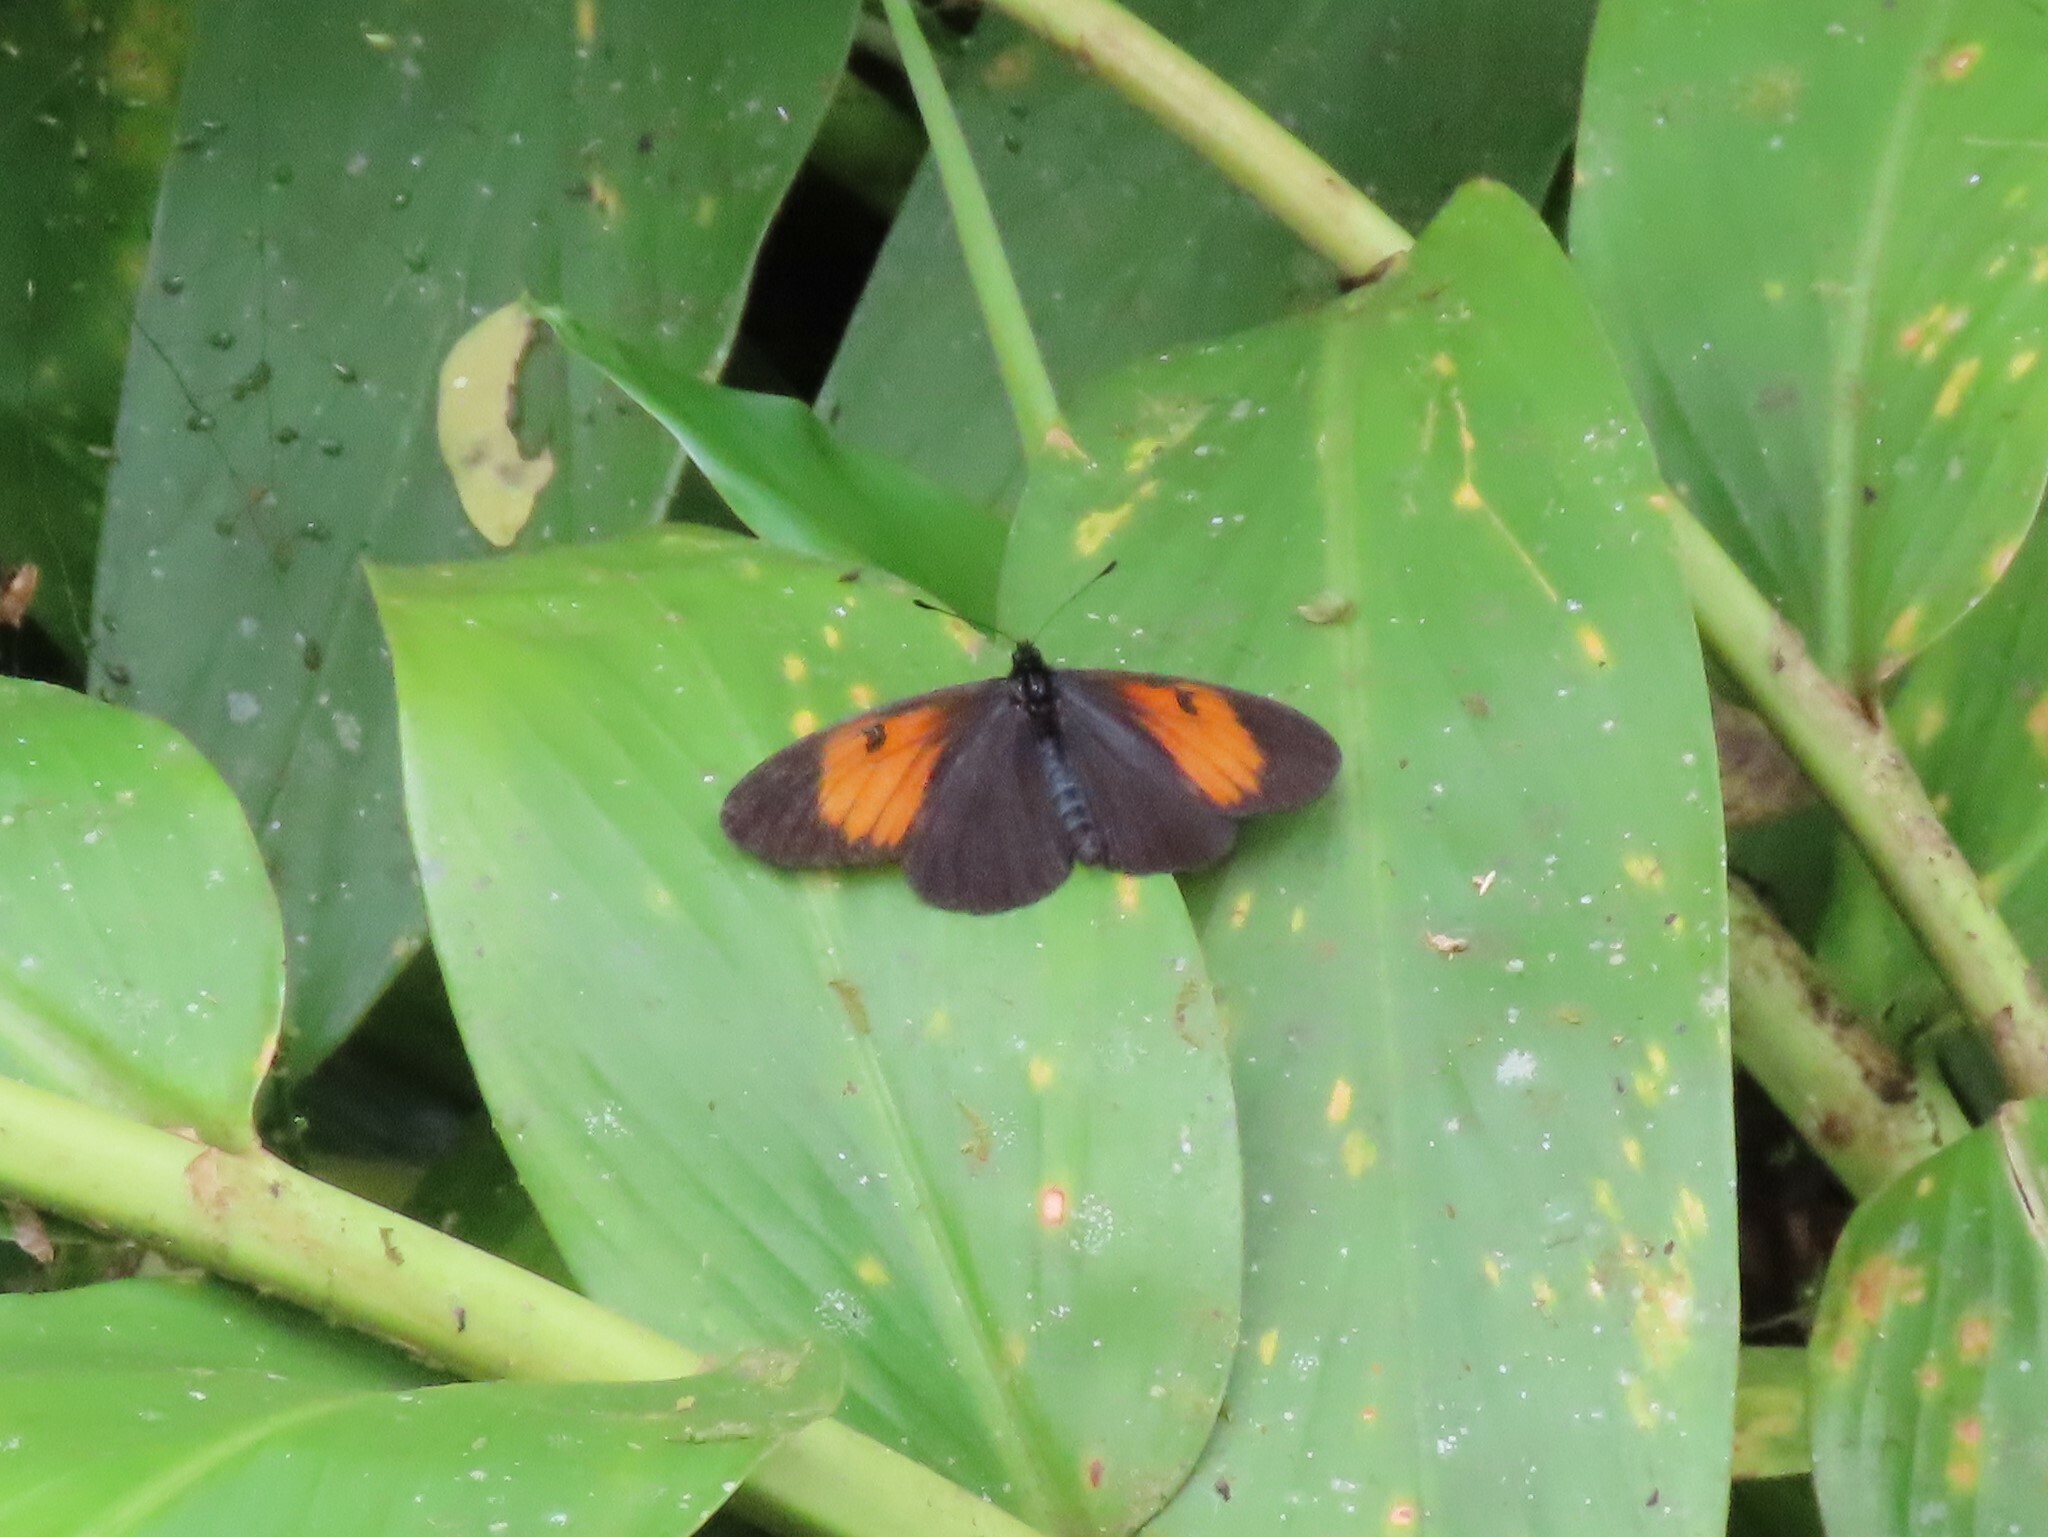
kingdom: Animalia
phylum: Arthropoda
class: Insecta
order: Lepidoptera
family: Nymphalidae
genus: Actinote
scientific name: Actinote stratonice
